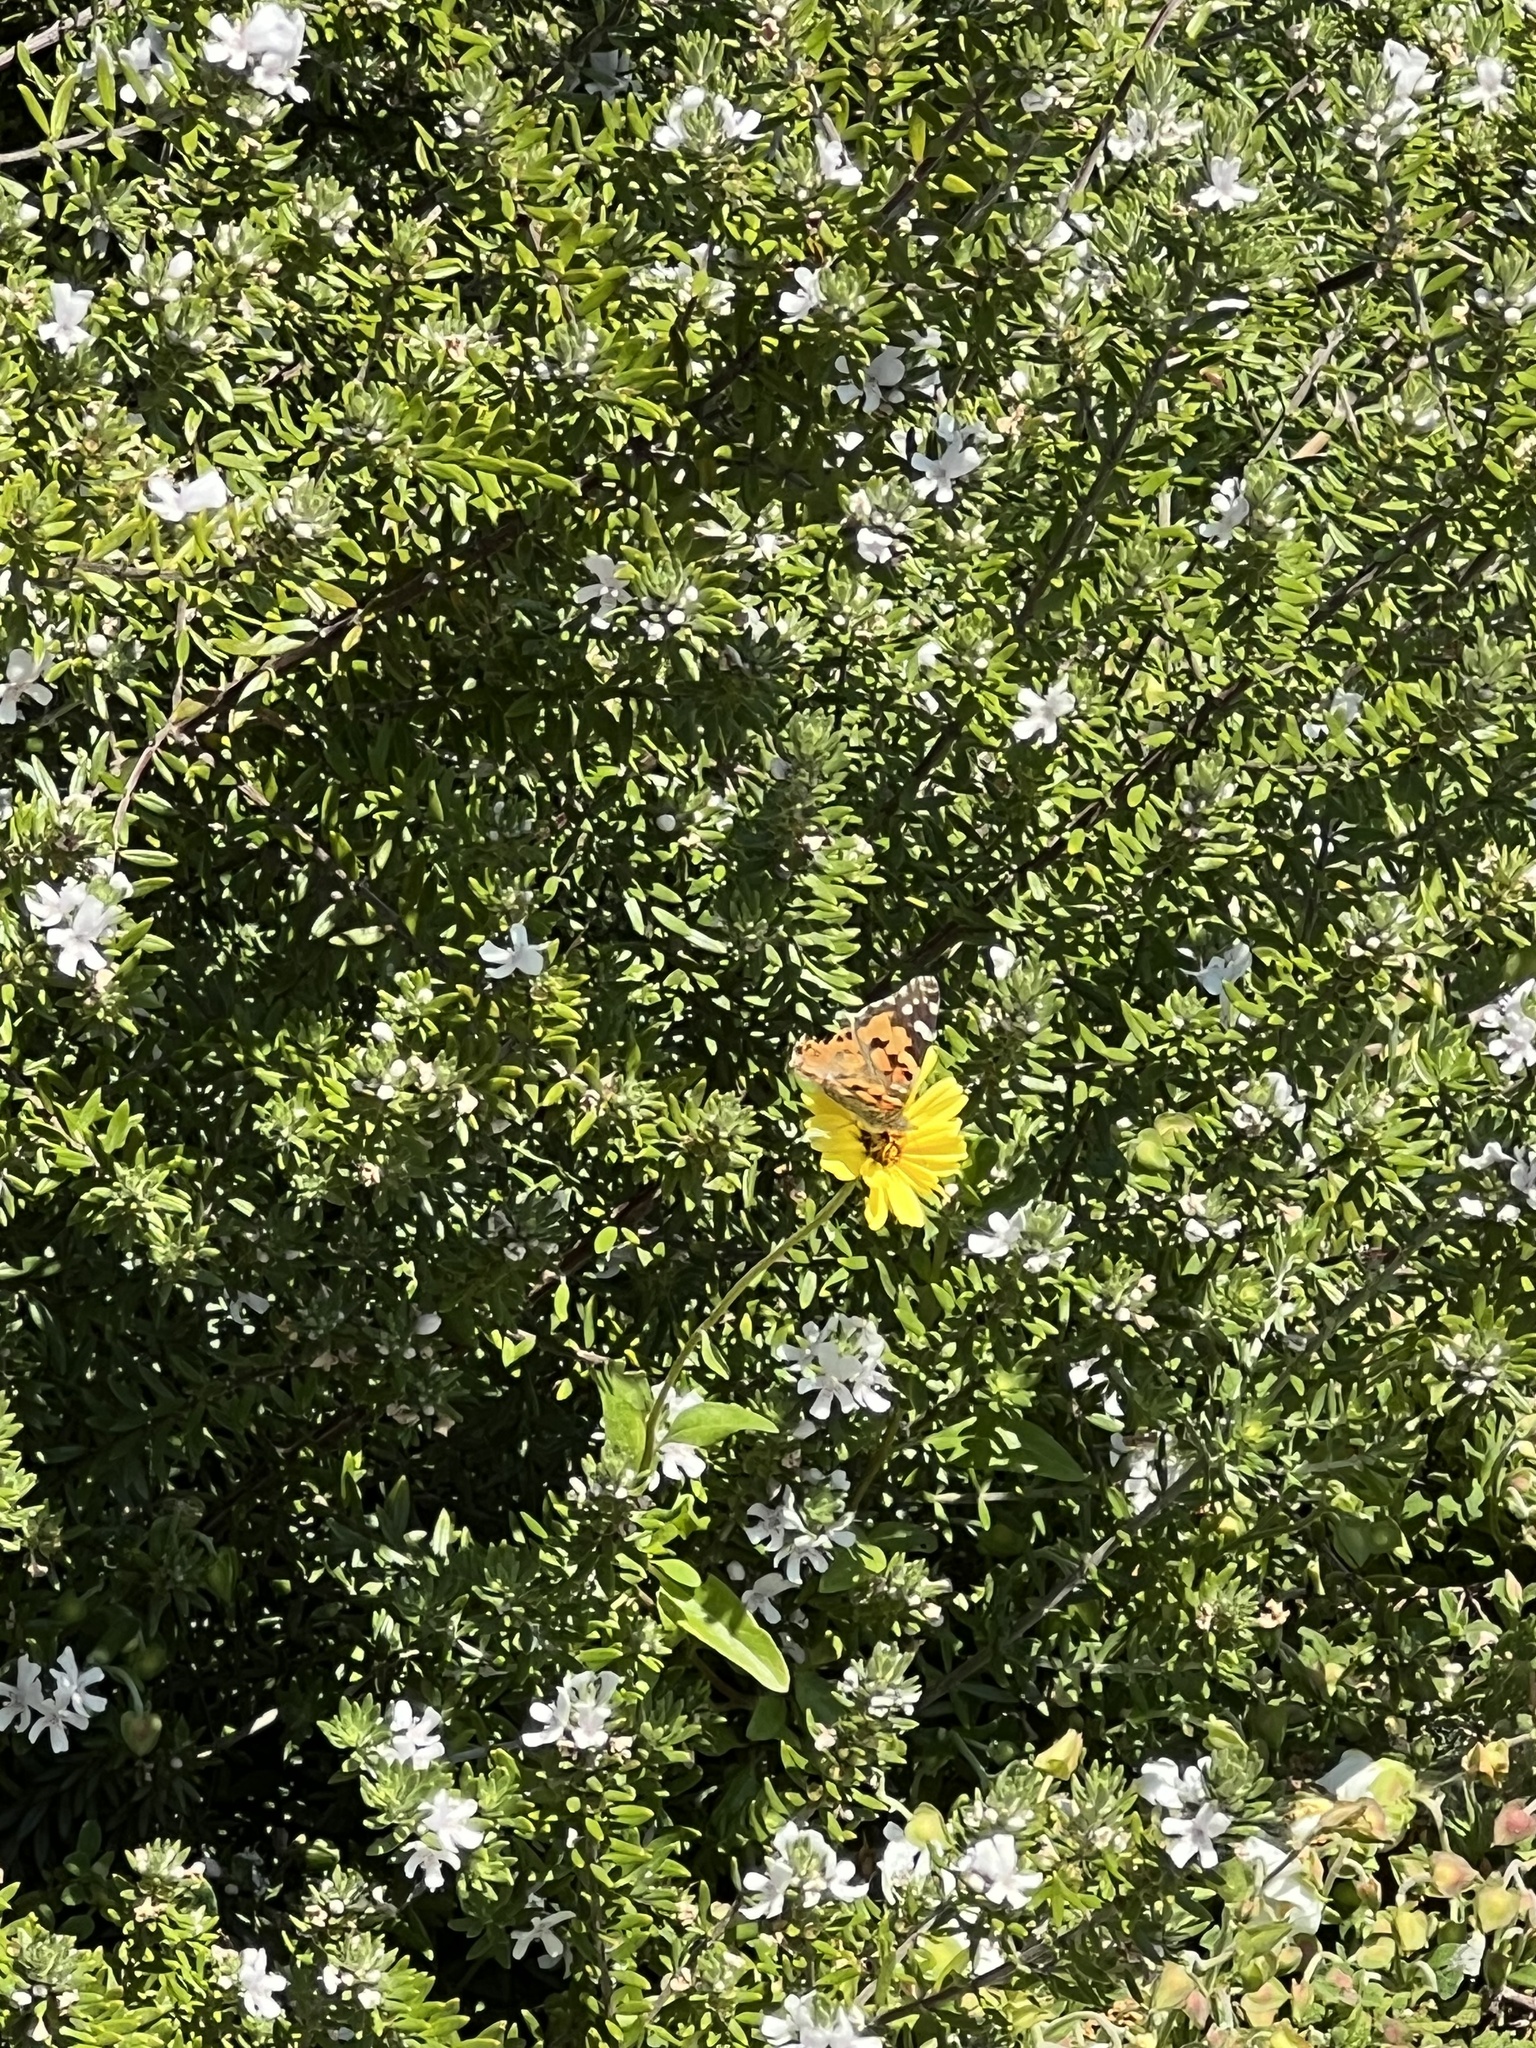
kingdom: Animalia
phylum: Arthropoda
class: Insecta
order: Lepidoptera
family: Nymphalidae
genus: Vanessa
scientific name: Vanessa cardui
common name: Painted lady
